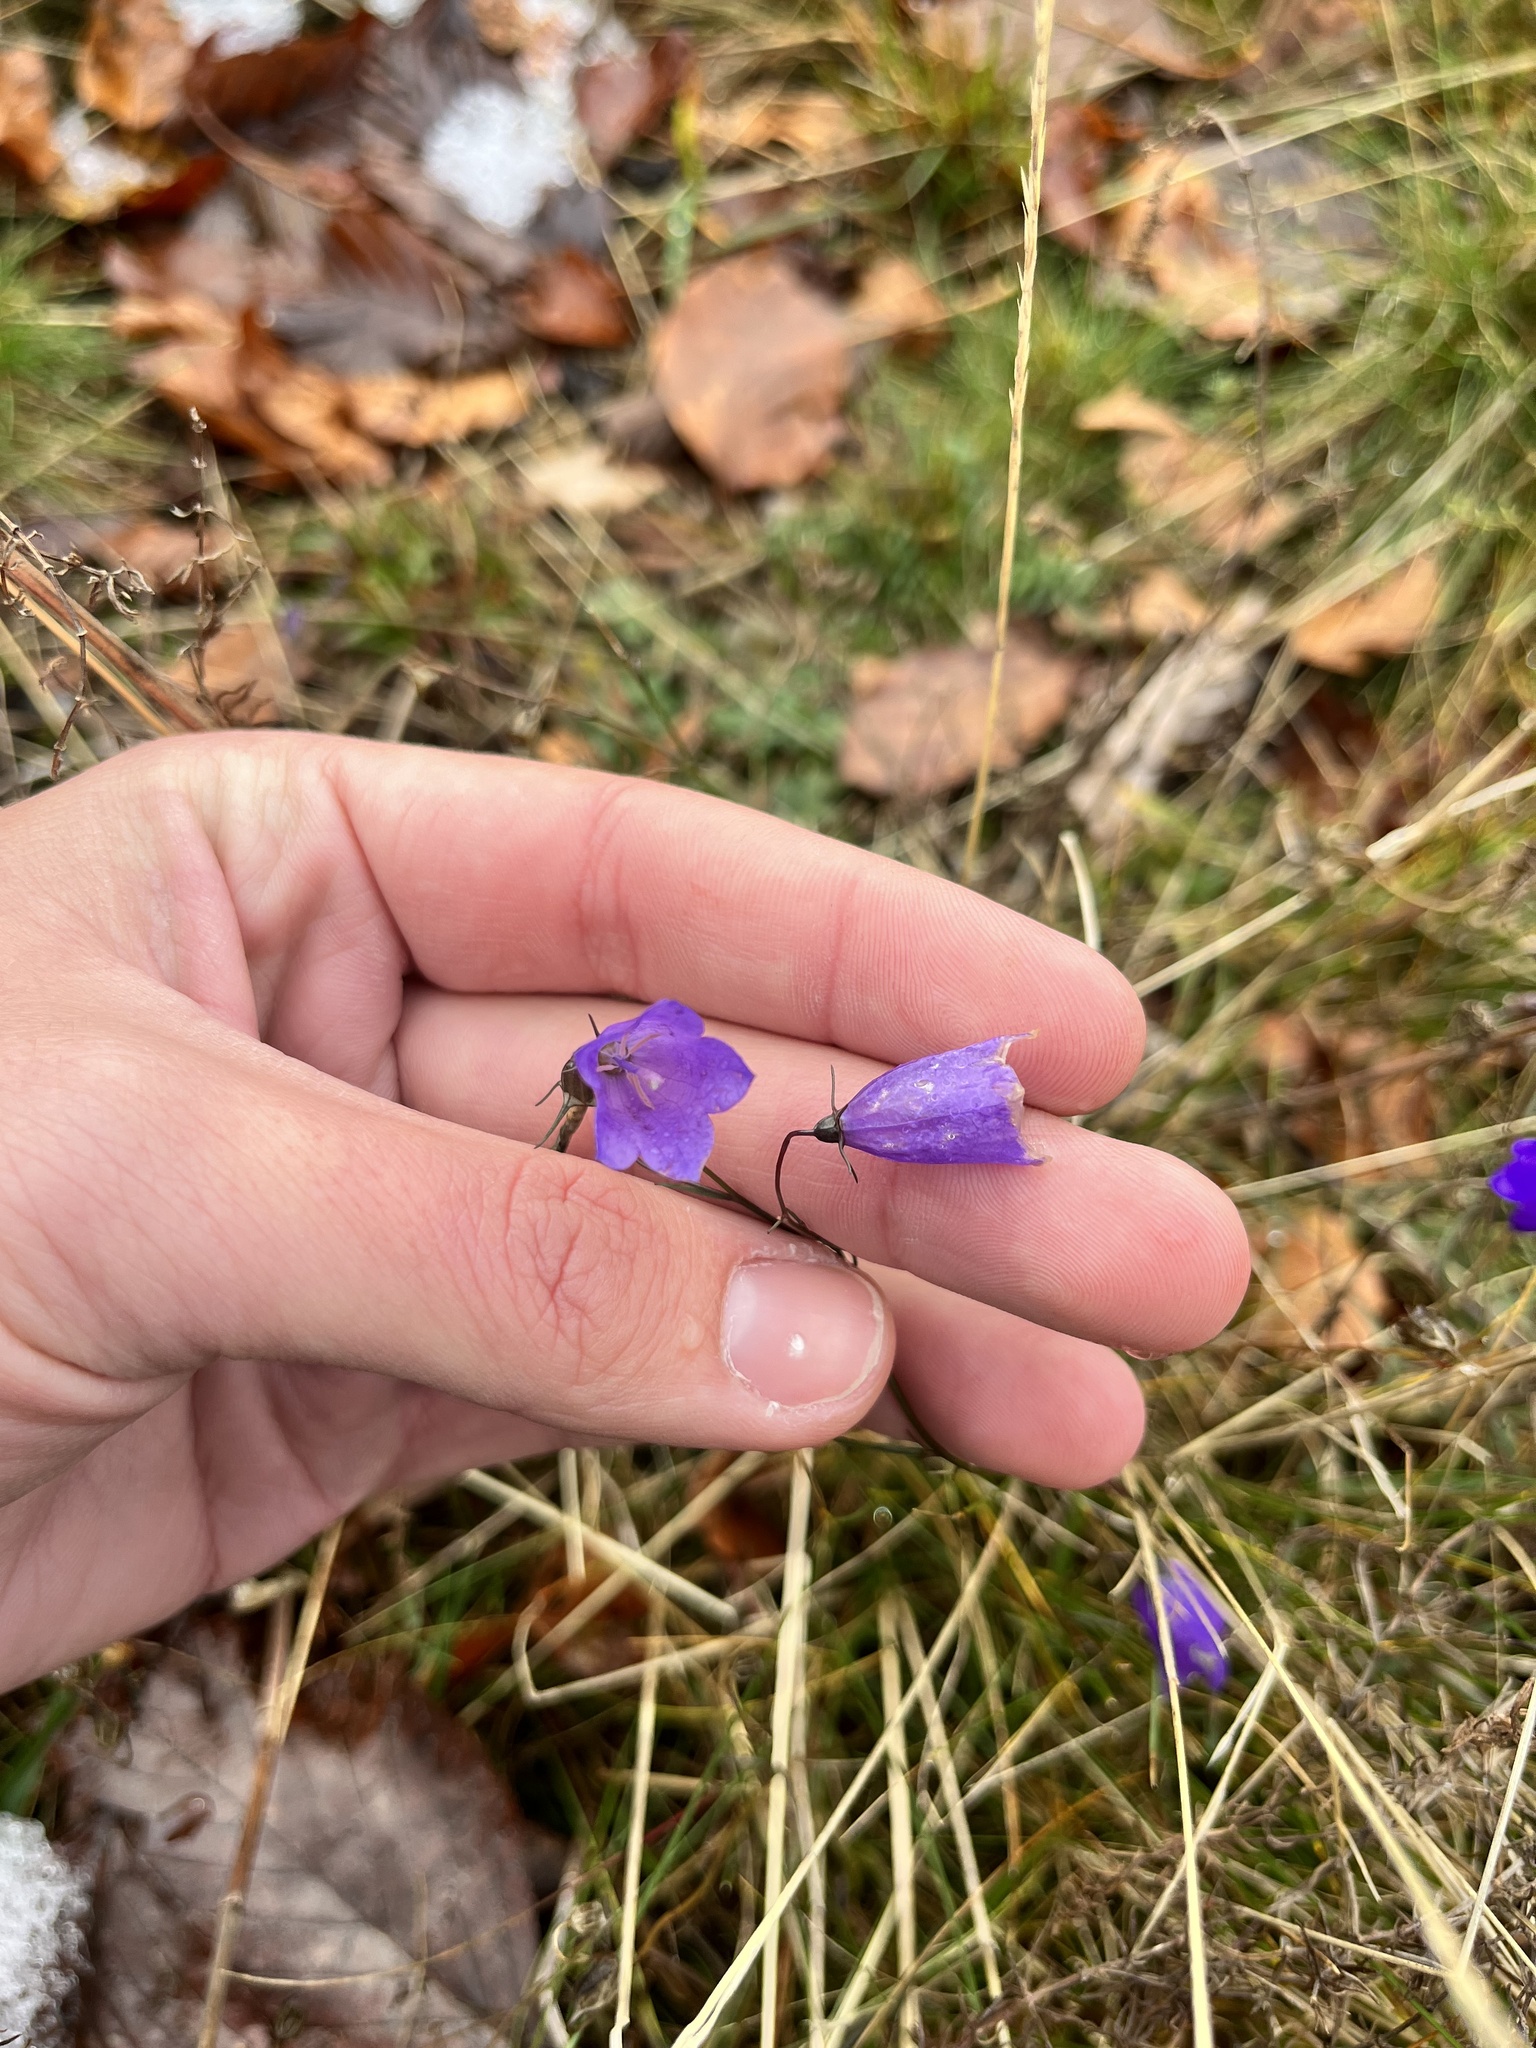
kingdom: Plantae
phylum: Tracheophyta
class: Magnoliopsida
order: Asterales
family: Campanulaceae
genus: Campanula
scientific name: Campanula rotundifolia
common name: Harebell
